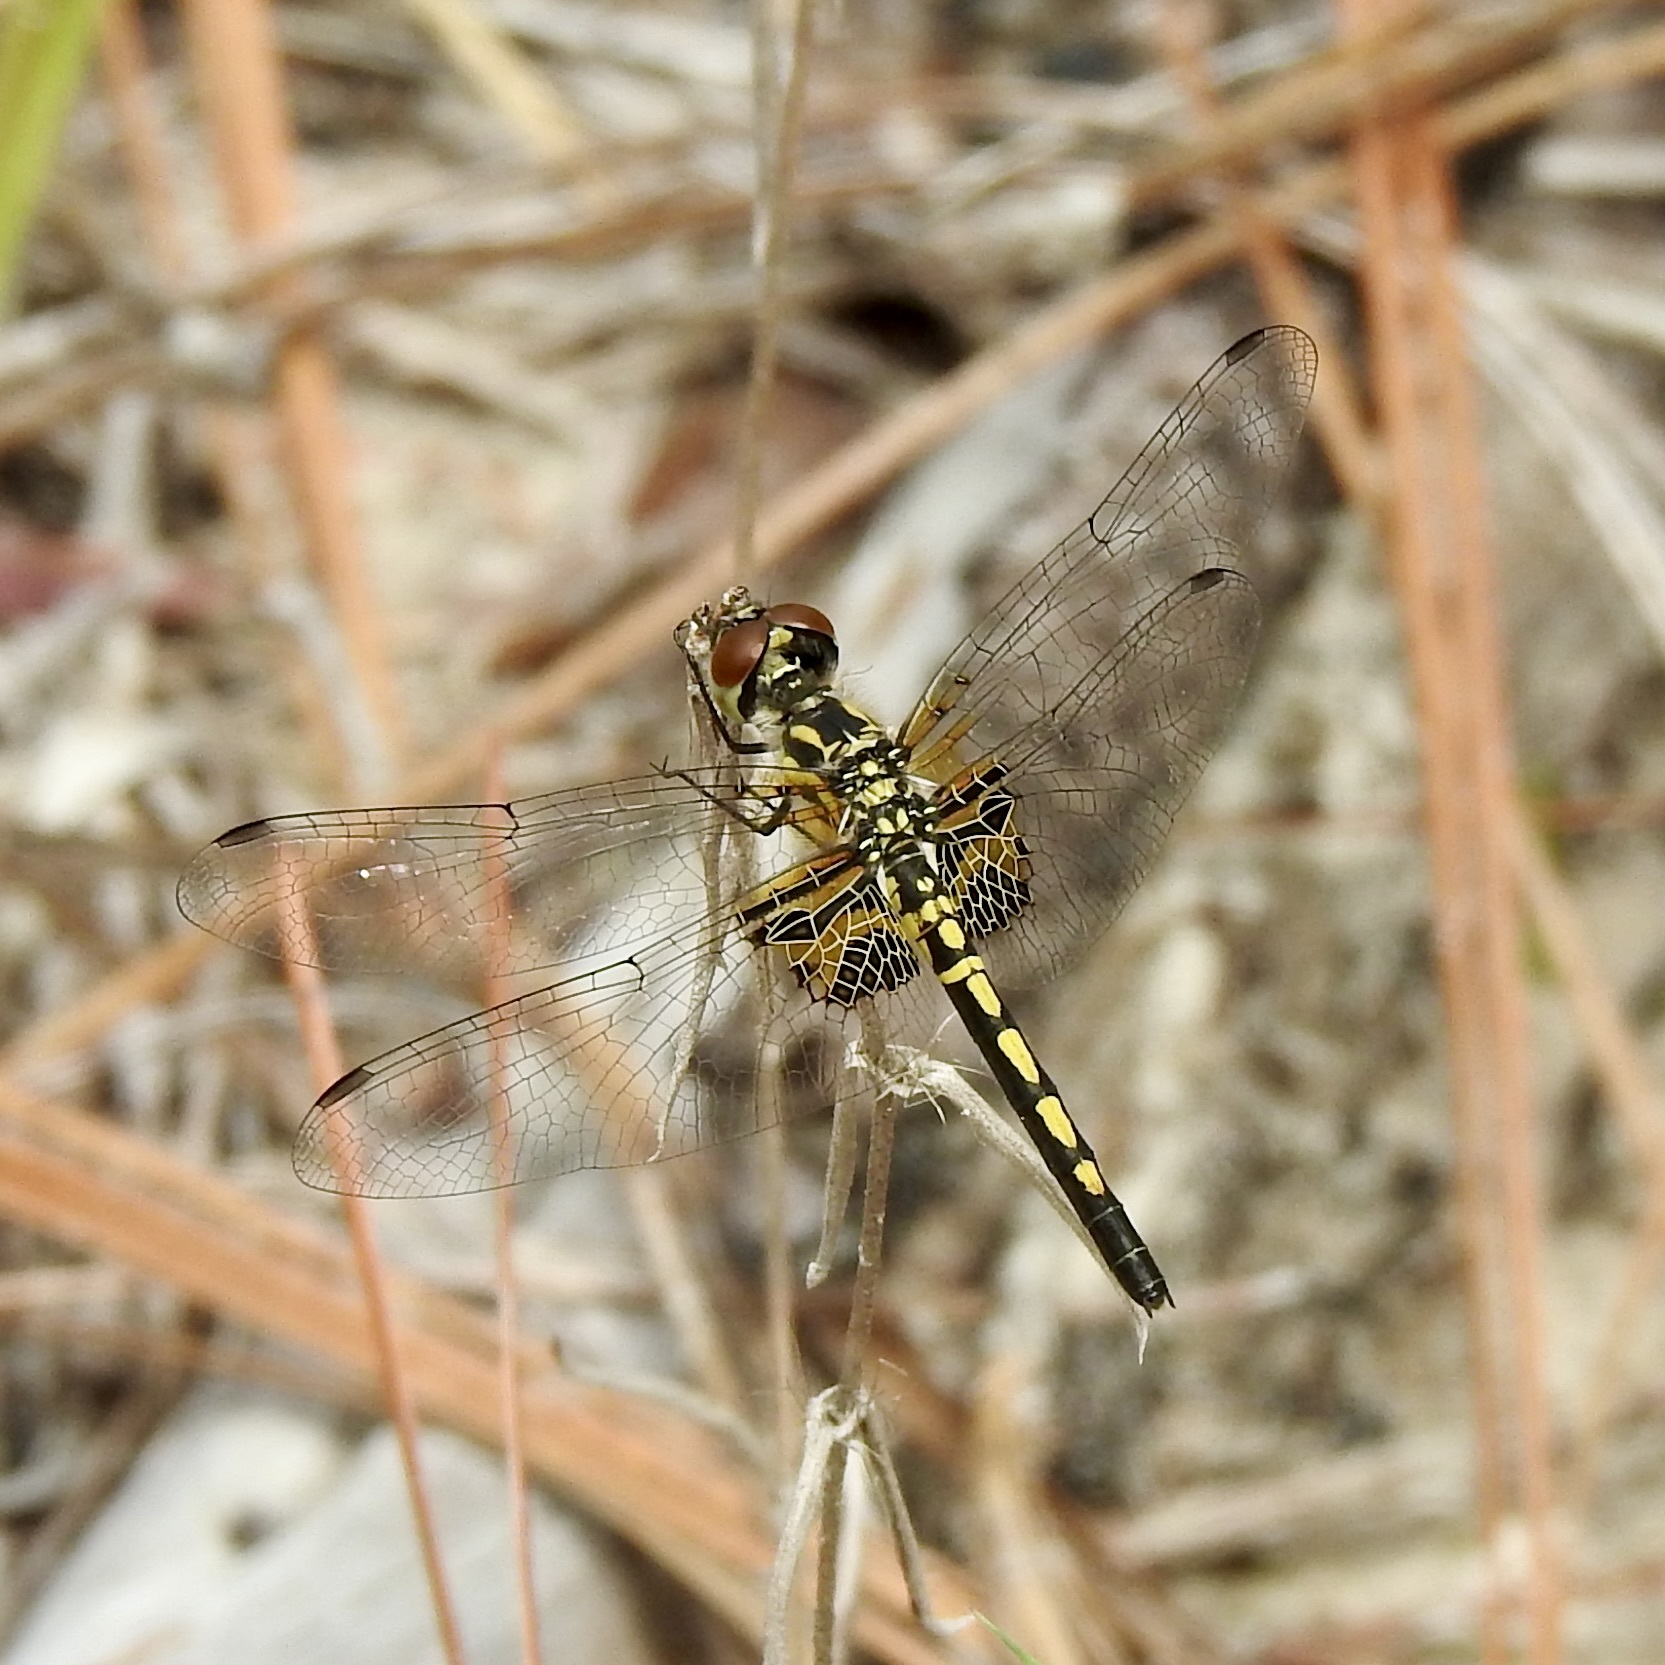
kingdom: Animalia
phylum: Arthropoda
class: Insecta
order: Odonata
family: Libellulidae
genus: Celithemis
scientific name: Celithemis ornata
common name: Ornate pennant
